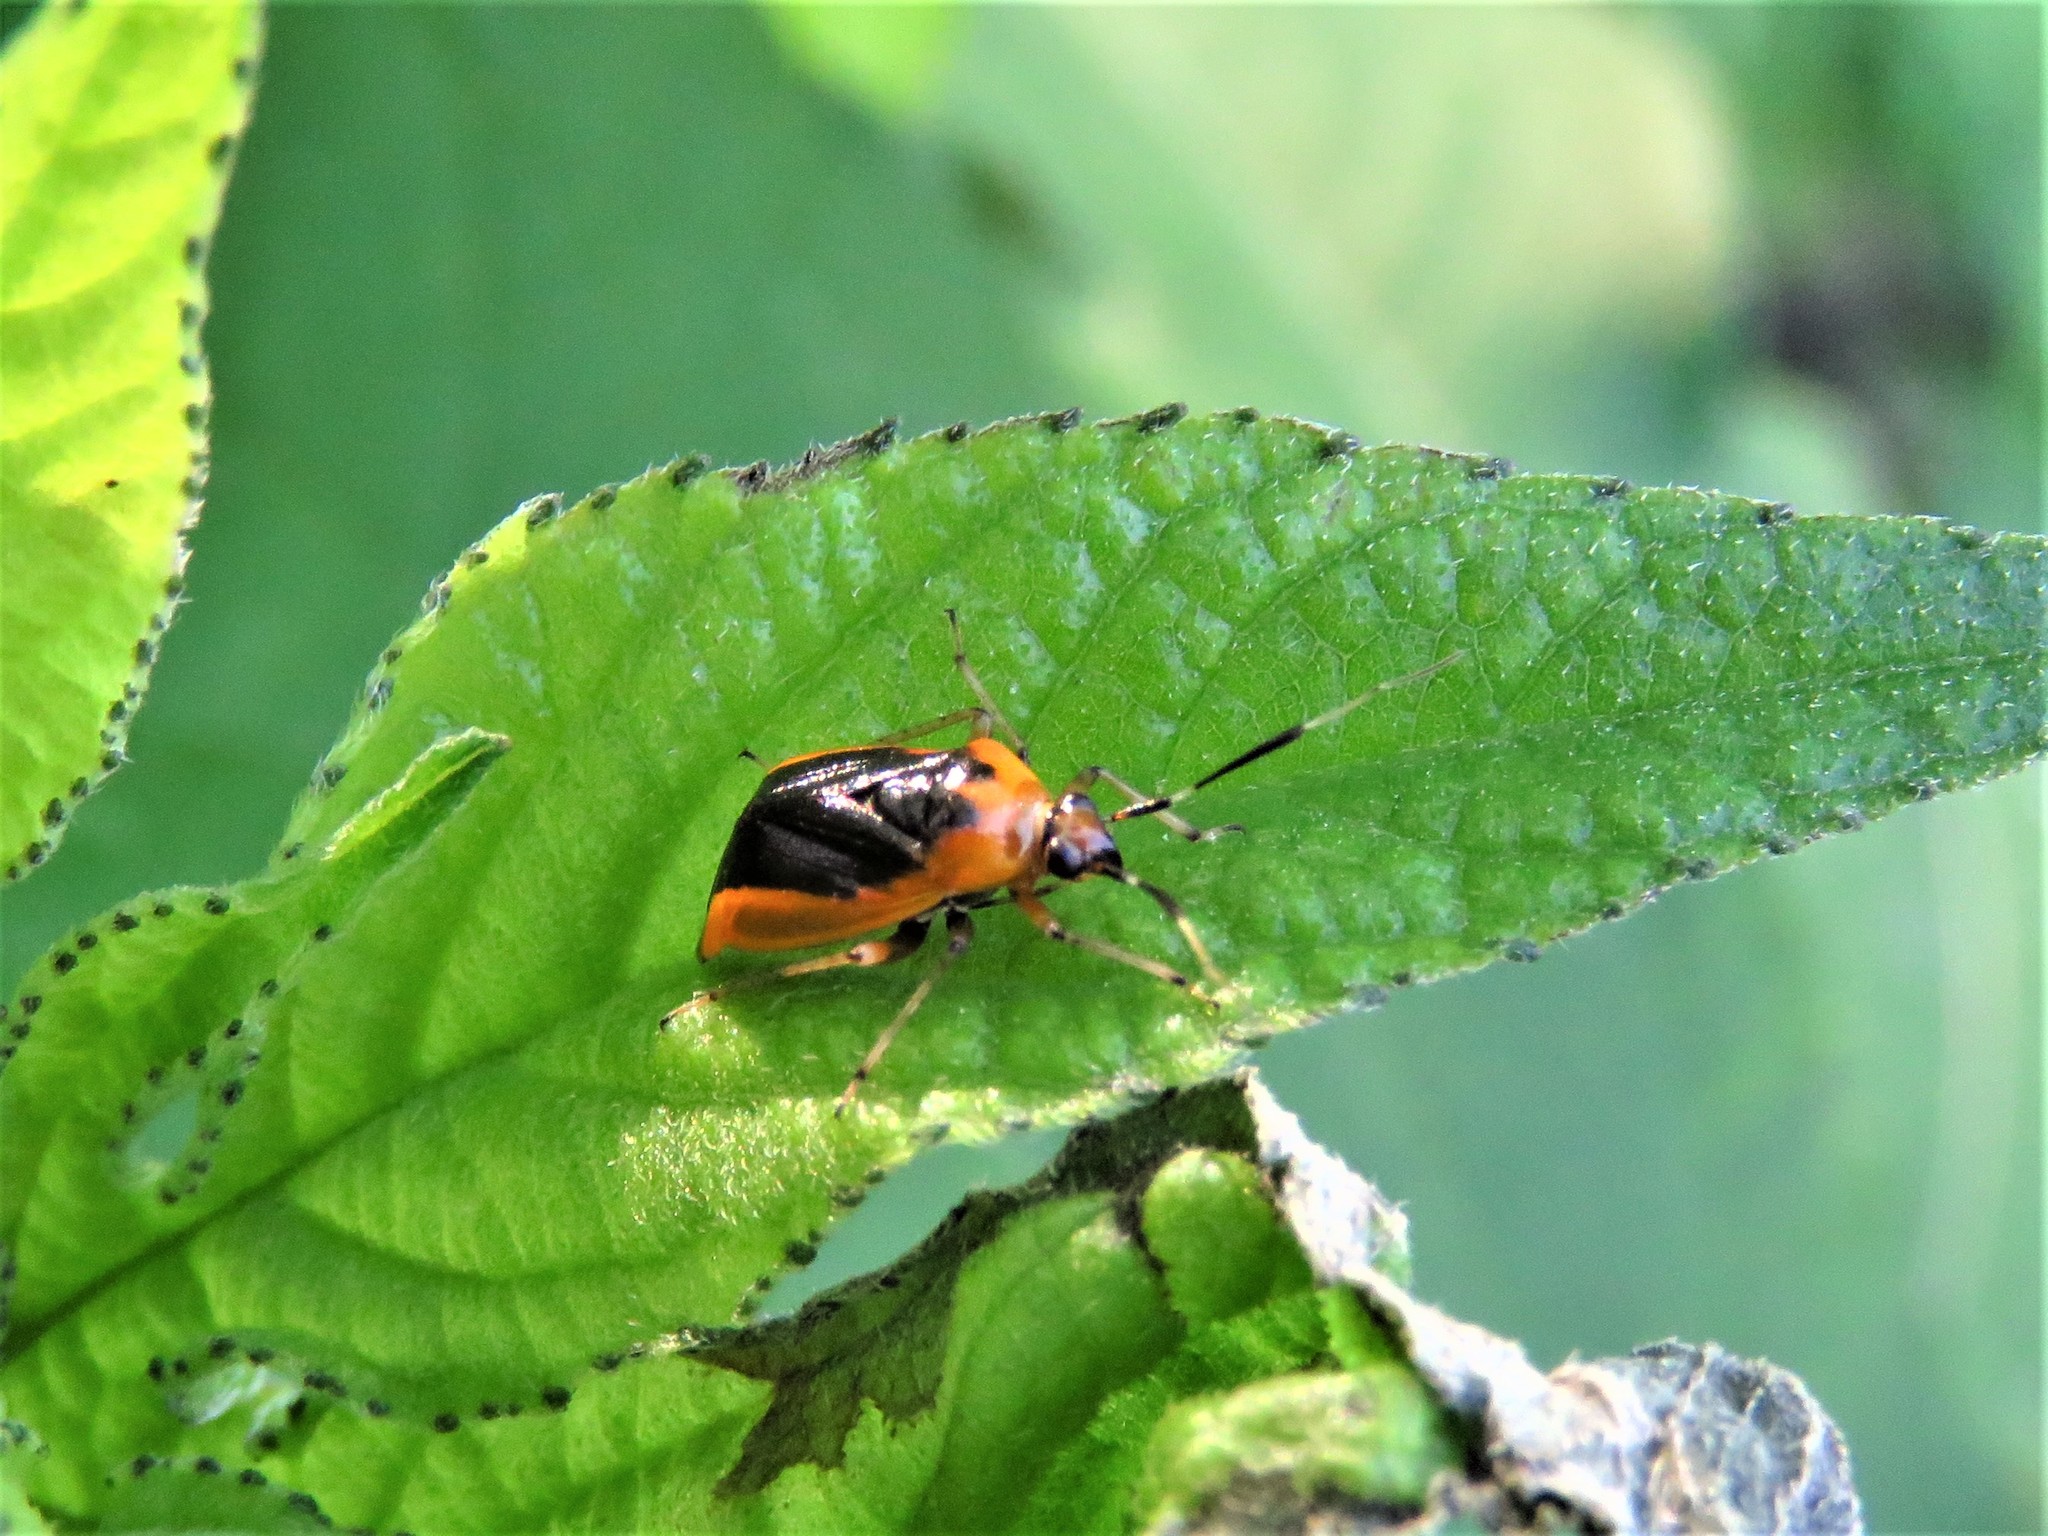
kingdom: Animalia
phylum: Arthropoda
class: Insecta
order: Hemiptera
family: Miridae
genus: Metriorrhynchomiris
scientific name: Metriorrhynchomiris dislocatus
